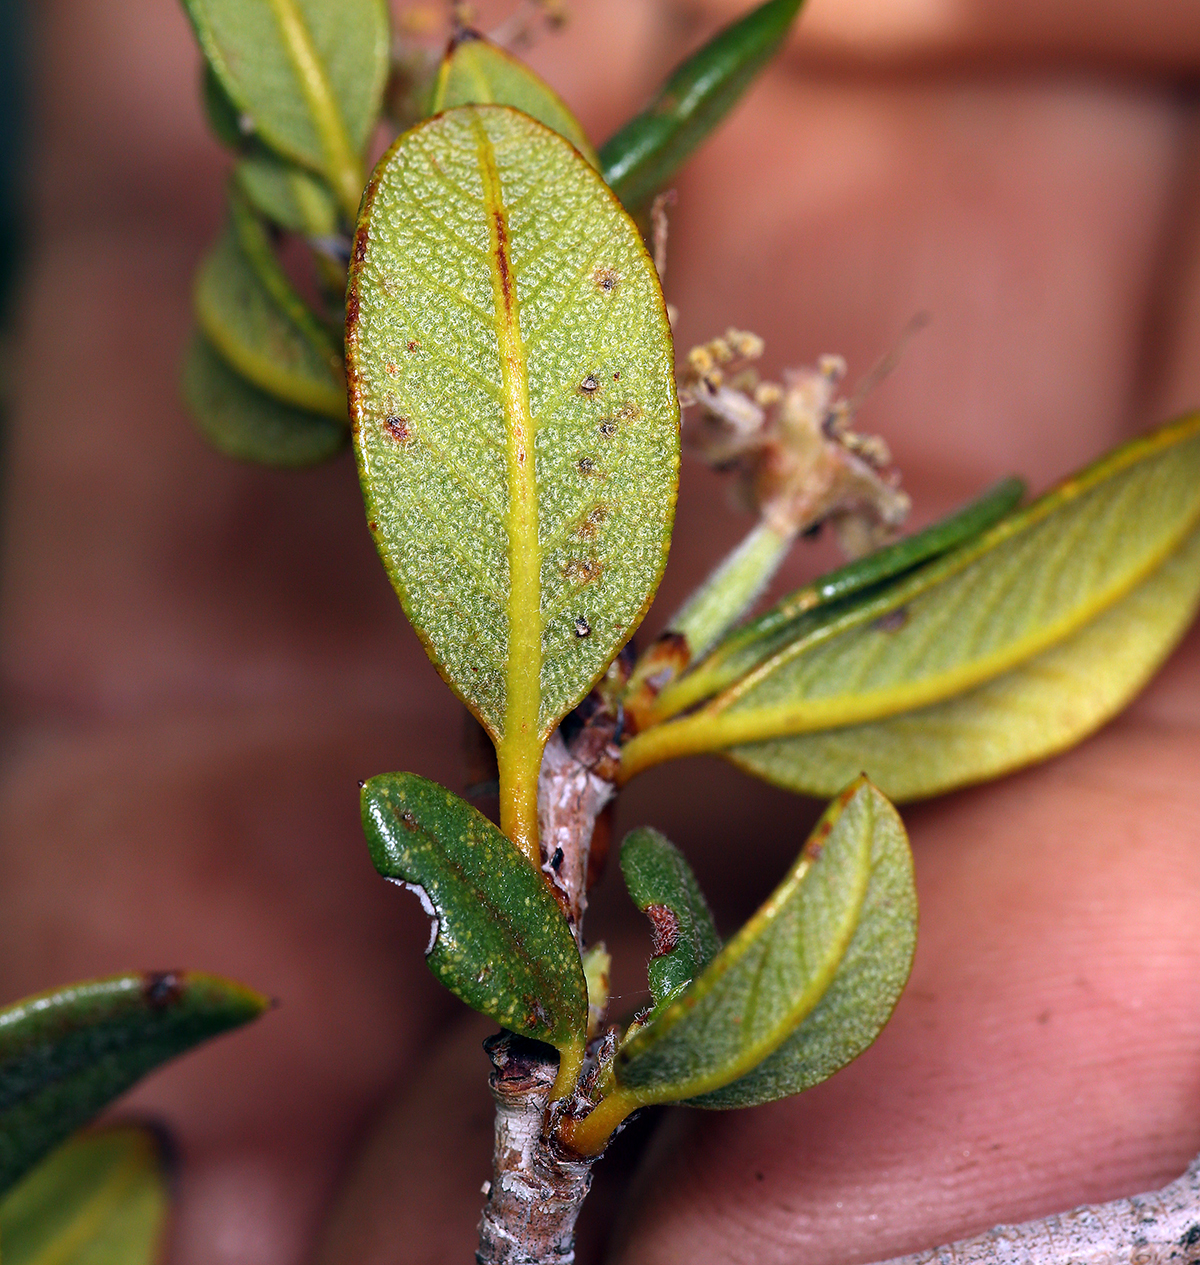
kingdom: Plantae
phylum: Tracheophyta
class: Magnoliopsida
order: Rosales
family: Rosaceae
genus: Cercocarpus
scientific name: Cercocarpus ledifolius
